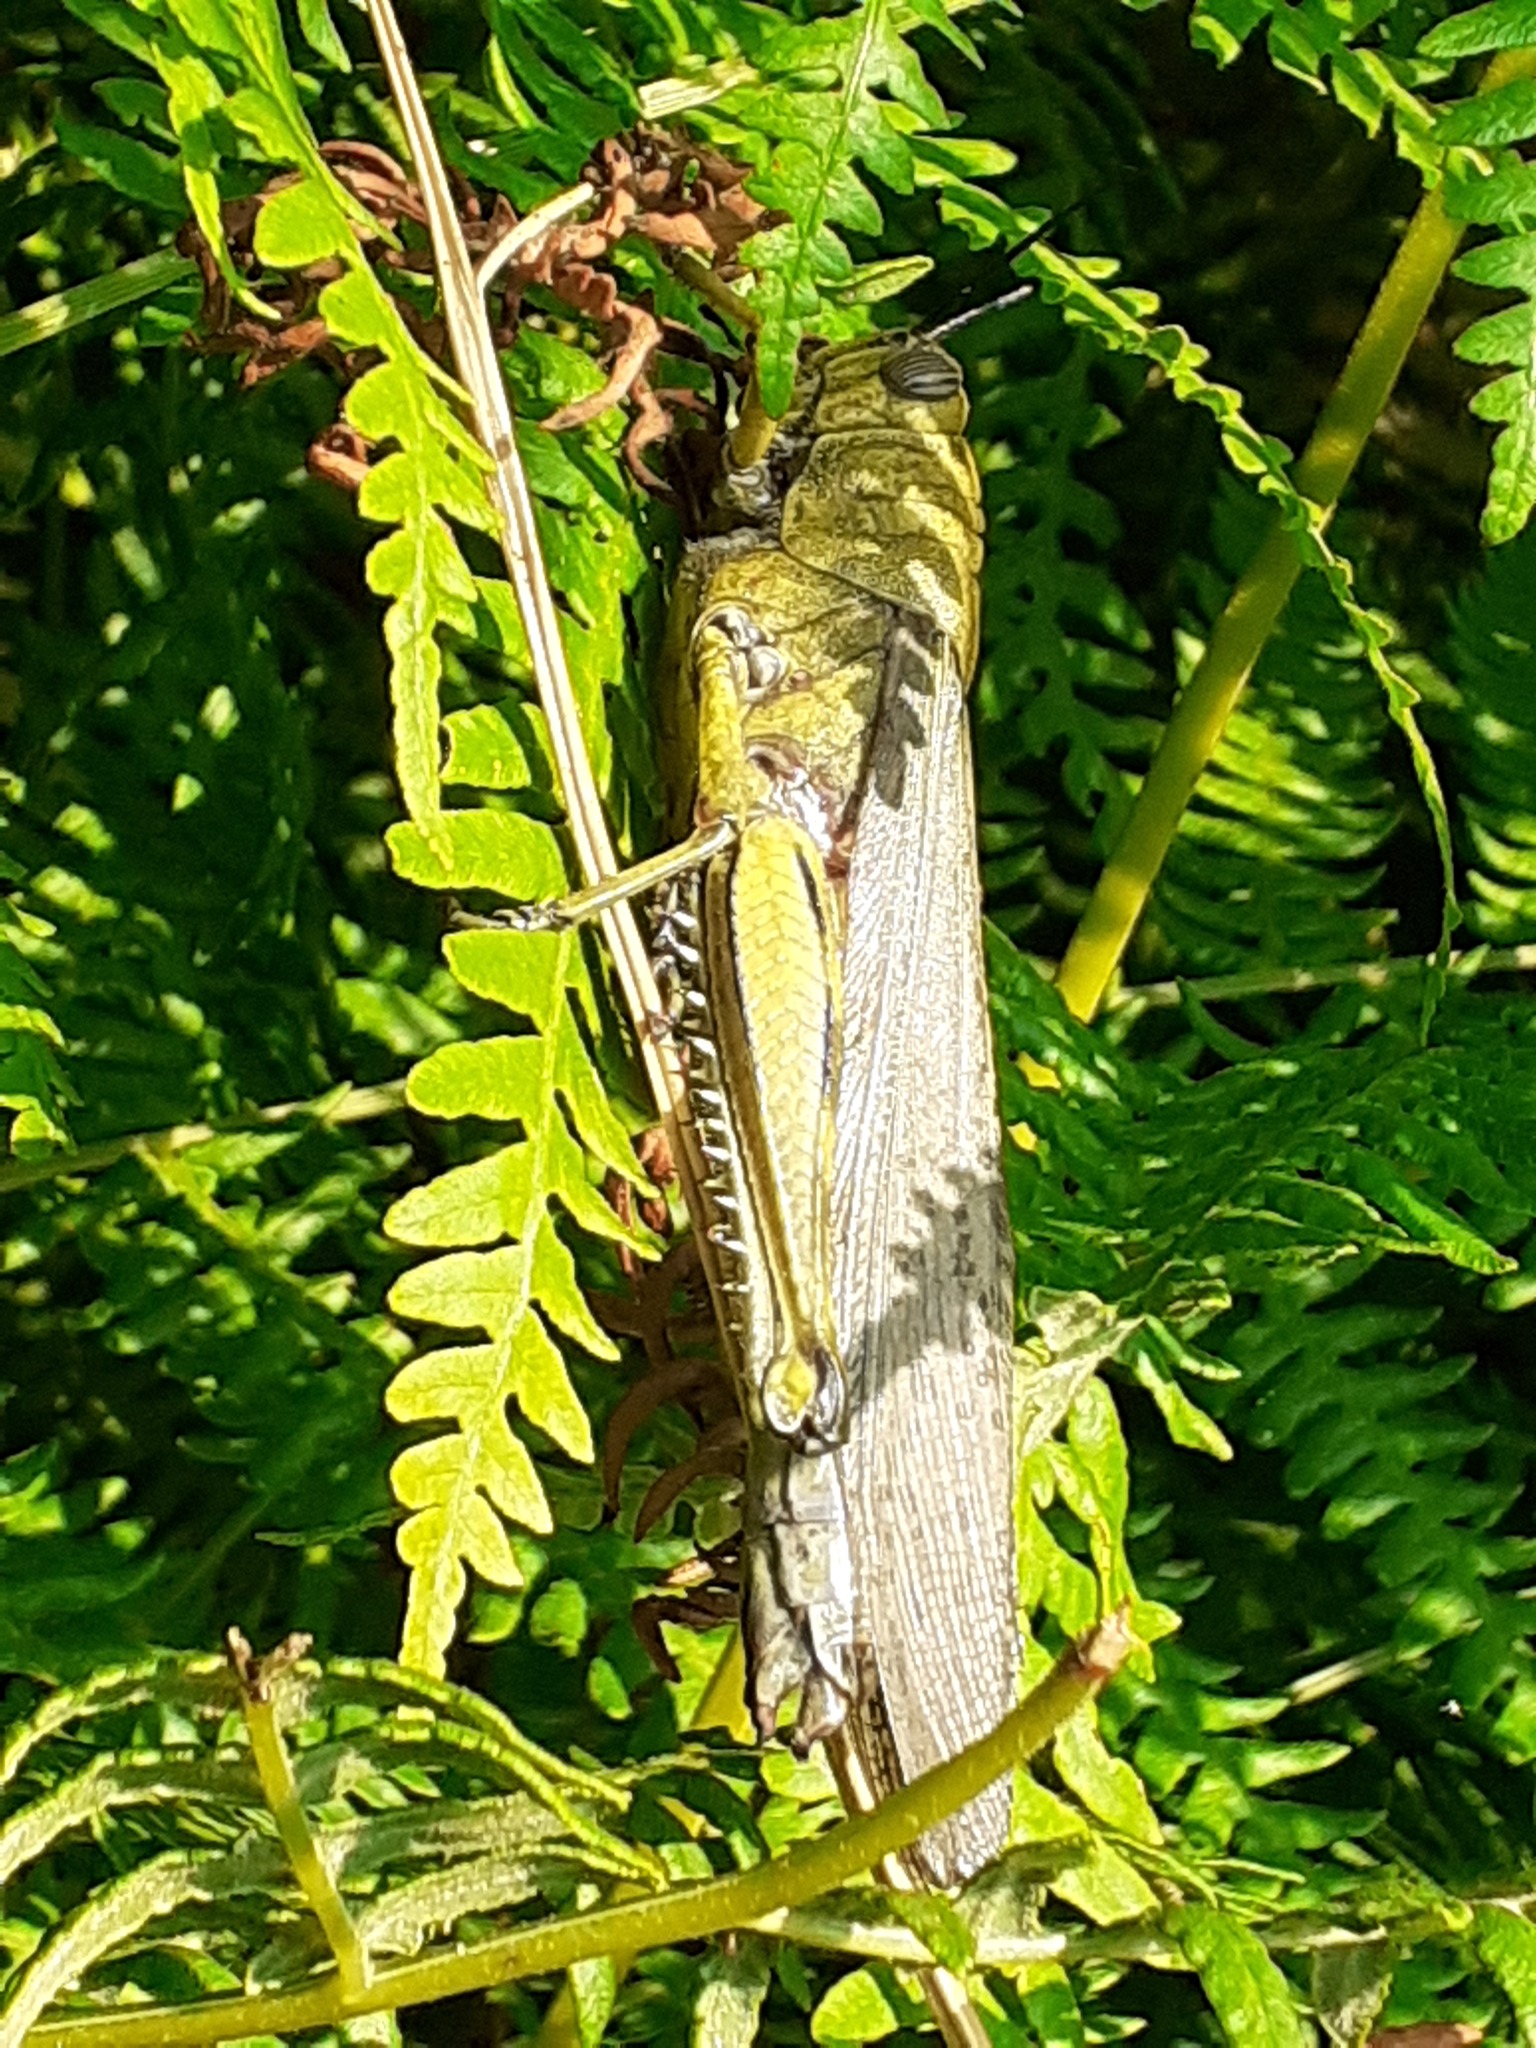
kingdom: Animalia
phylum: Arthropoda
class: Insecta
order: Orthoptera
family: Acrididae
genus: Anacridium
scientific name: Anacridium aegyptium
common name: Egyptian grasshopper
